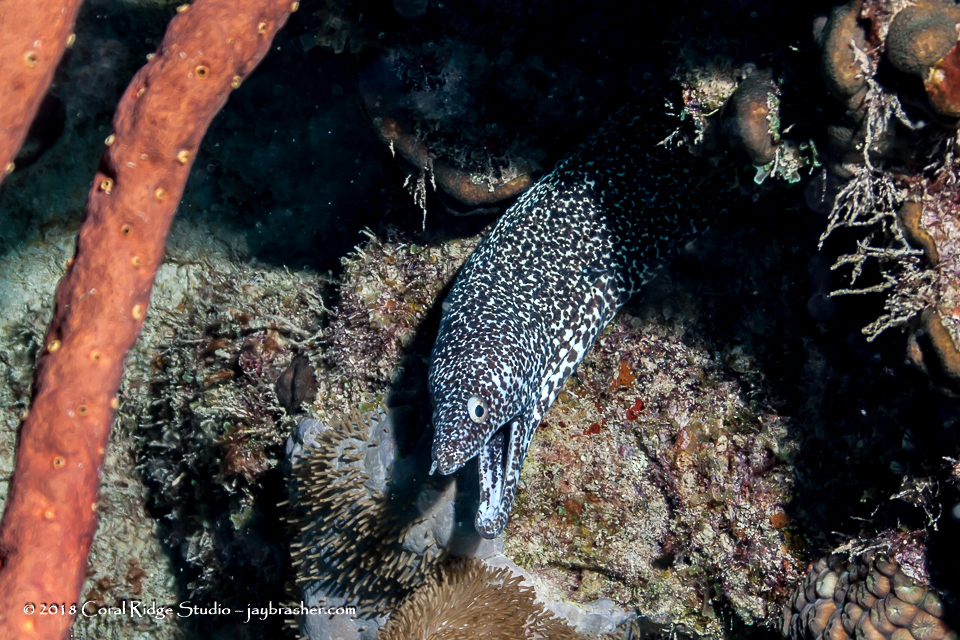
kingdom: Animalia
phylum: Chordata
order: Anguilliformes
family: Muraenidae
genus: Gymnothorax
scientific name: Gymnothorax moringa
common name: Spotted moray
